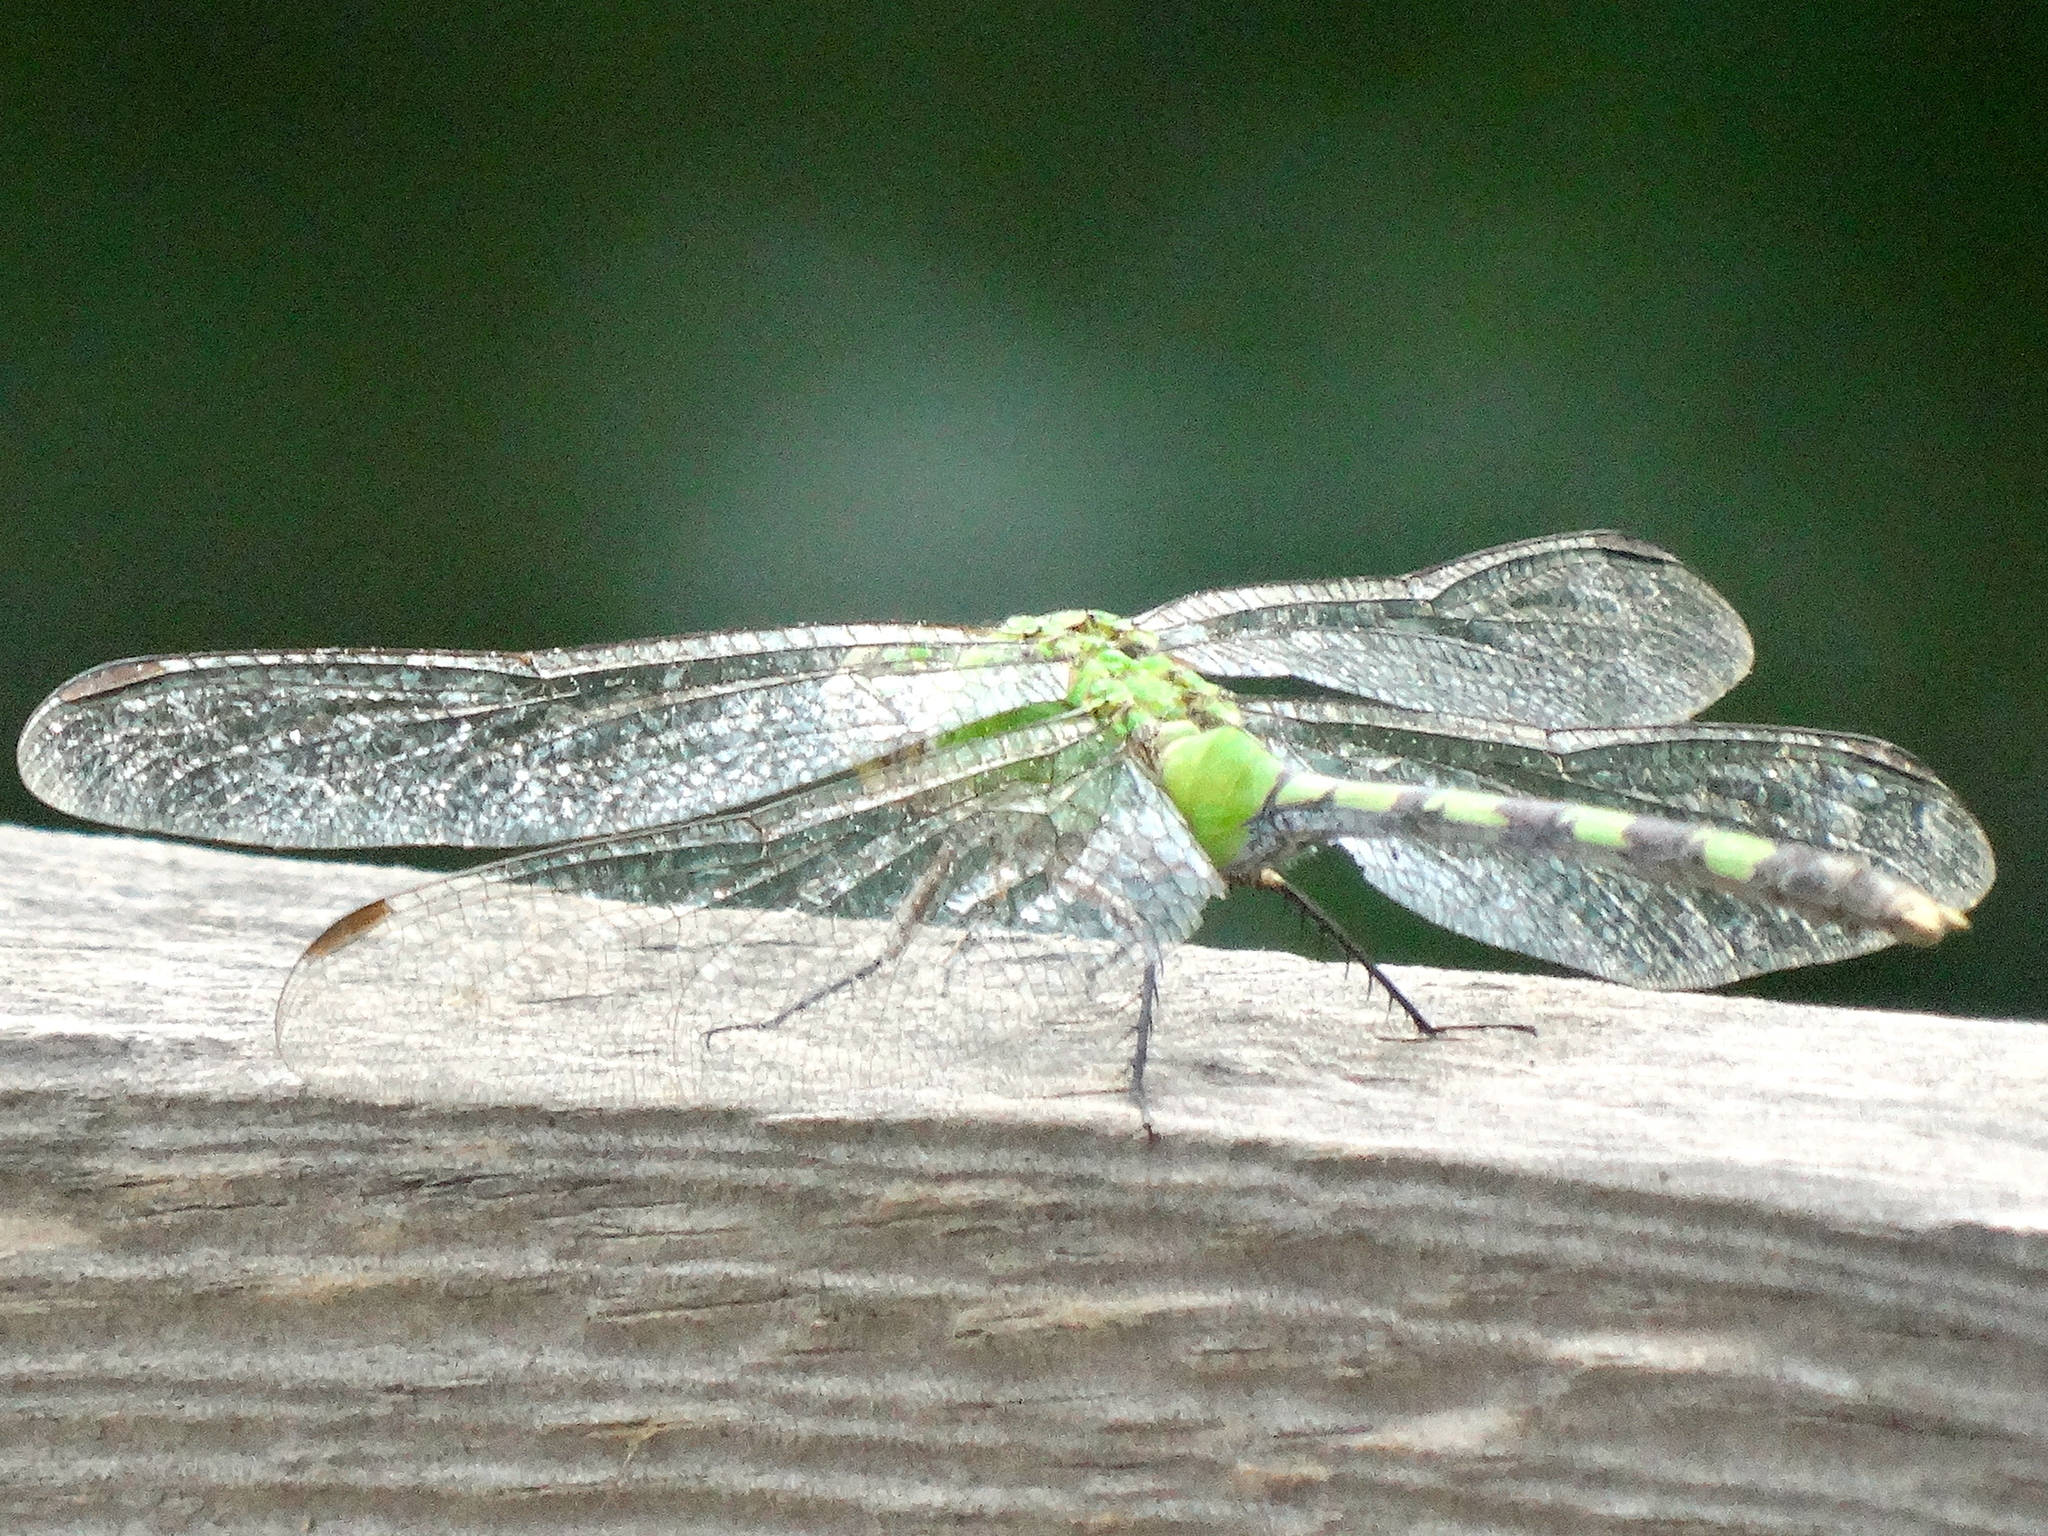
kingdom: Animalia
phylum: Arthropoda
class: Insecta
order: Odonata
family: Libellulidae
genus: Erythemis
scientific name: Erythemis vesiculosa
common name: Great pondhawk
